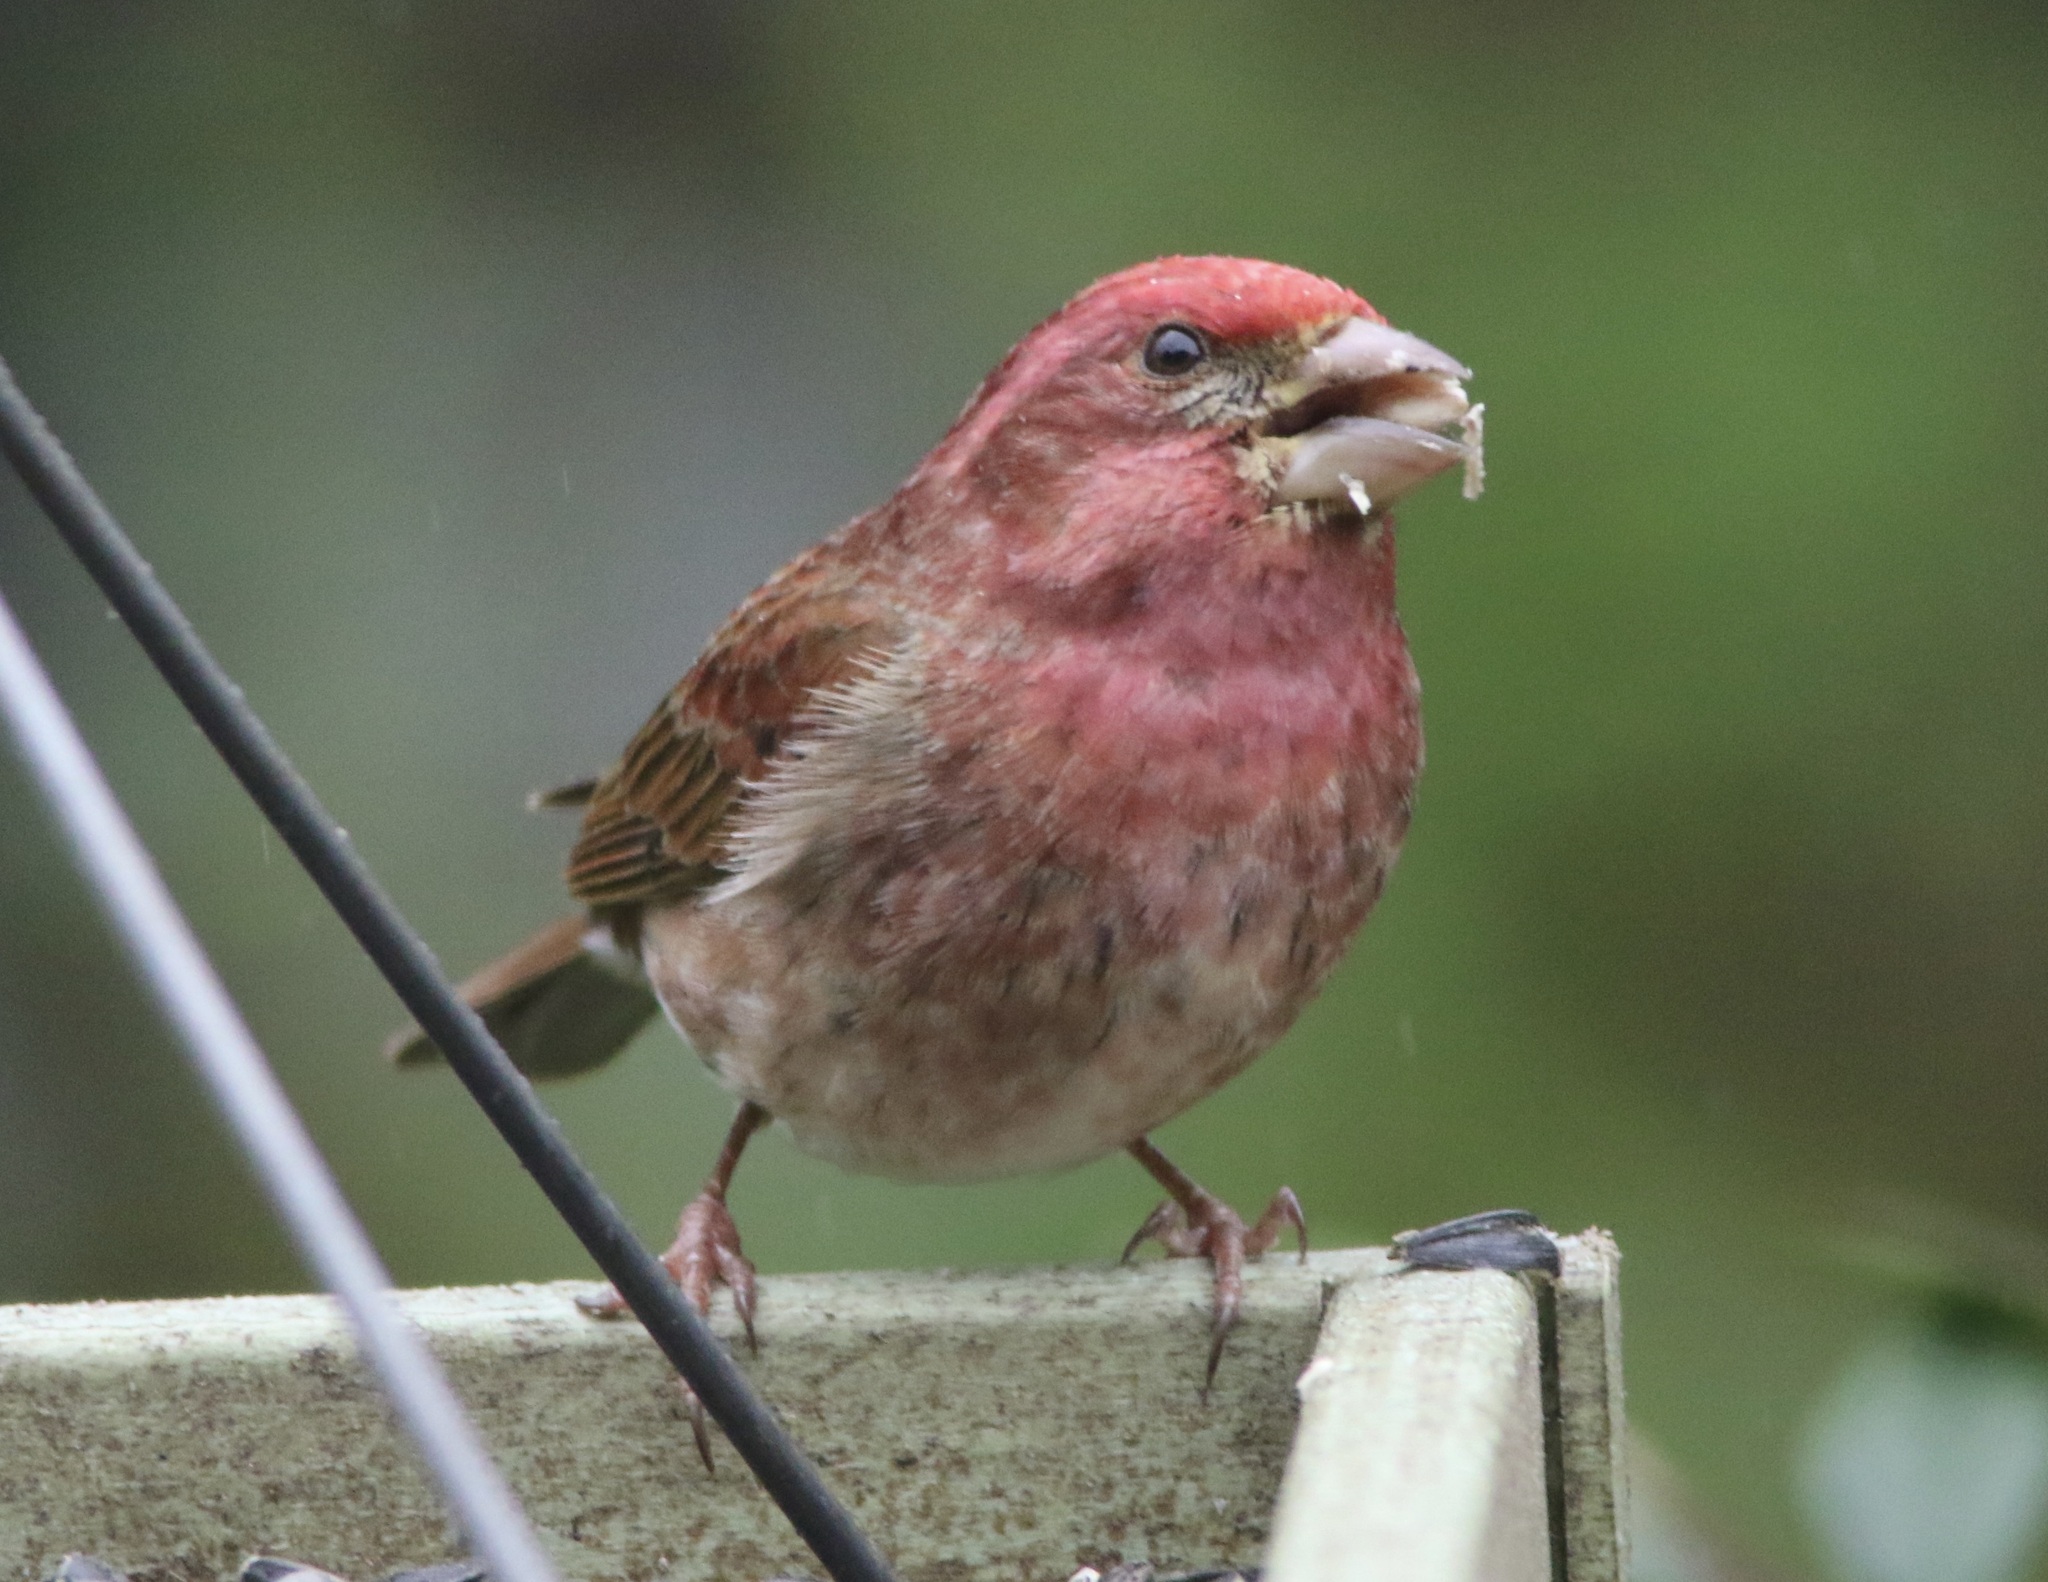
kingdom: Animalia
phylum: Chordata
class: Aves
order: Passeriformes
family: Fringillidae
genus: Haemorhous
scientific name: Haemorhous purpureus
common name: Purple finch
